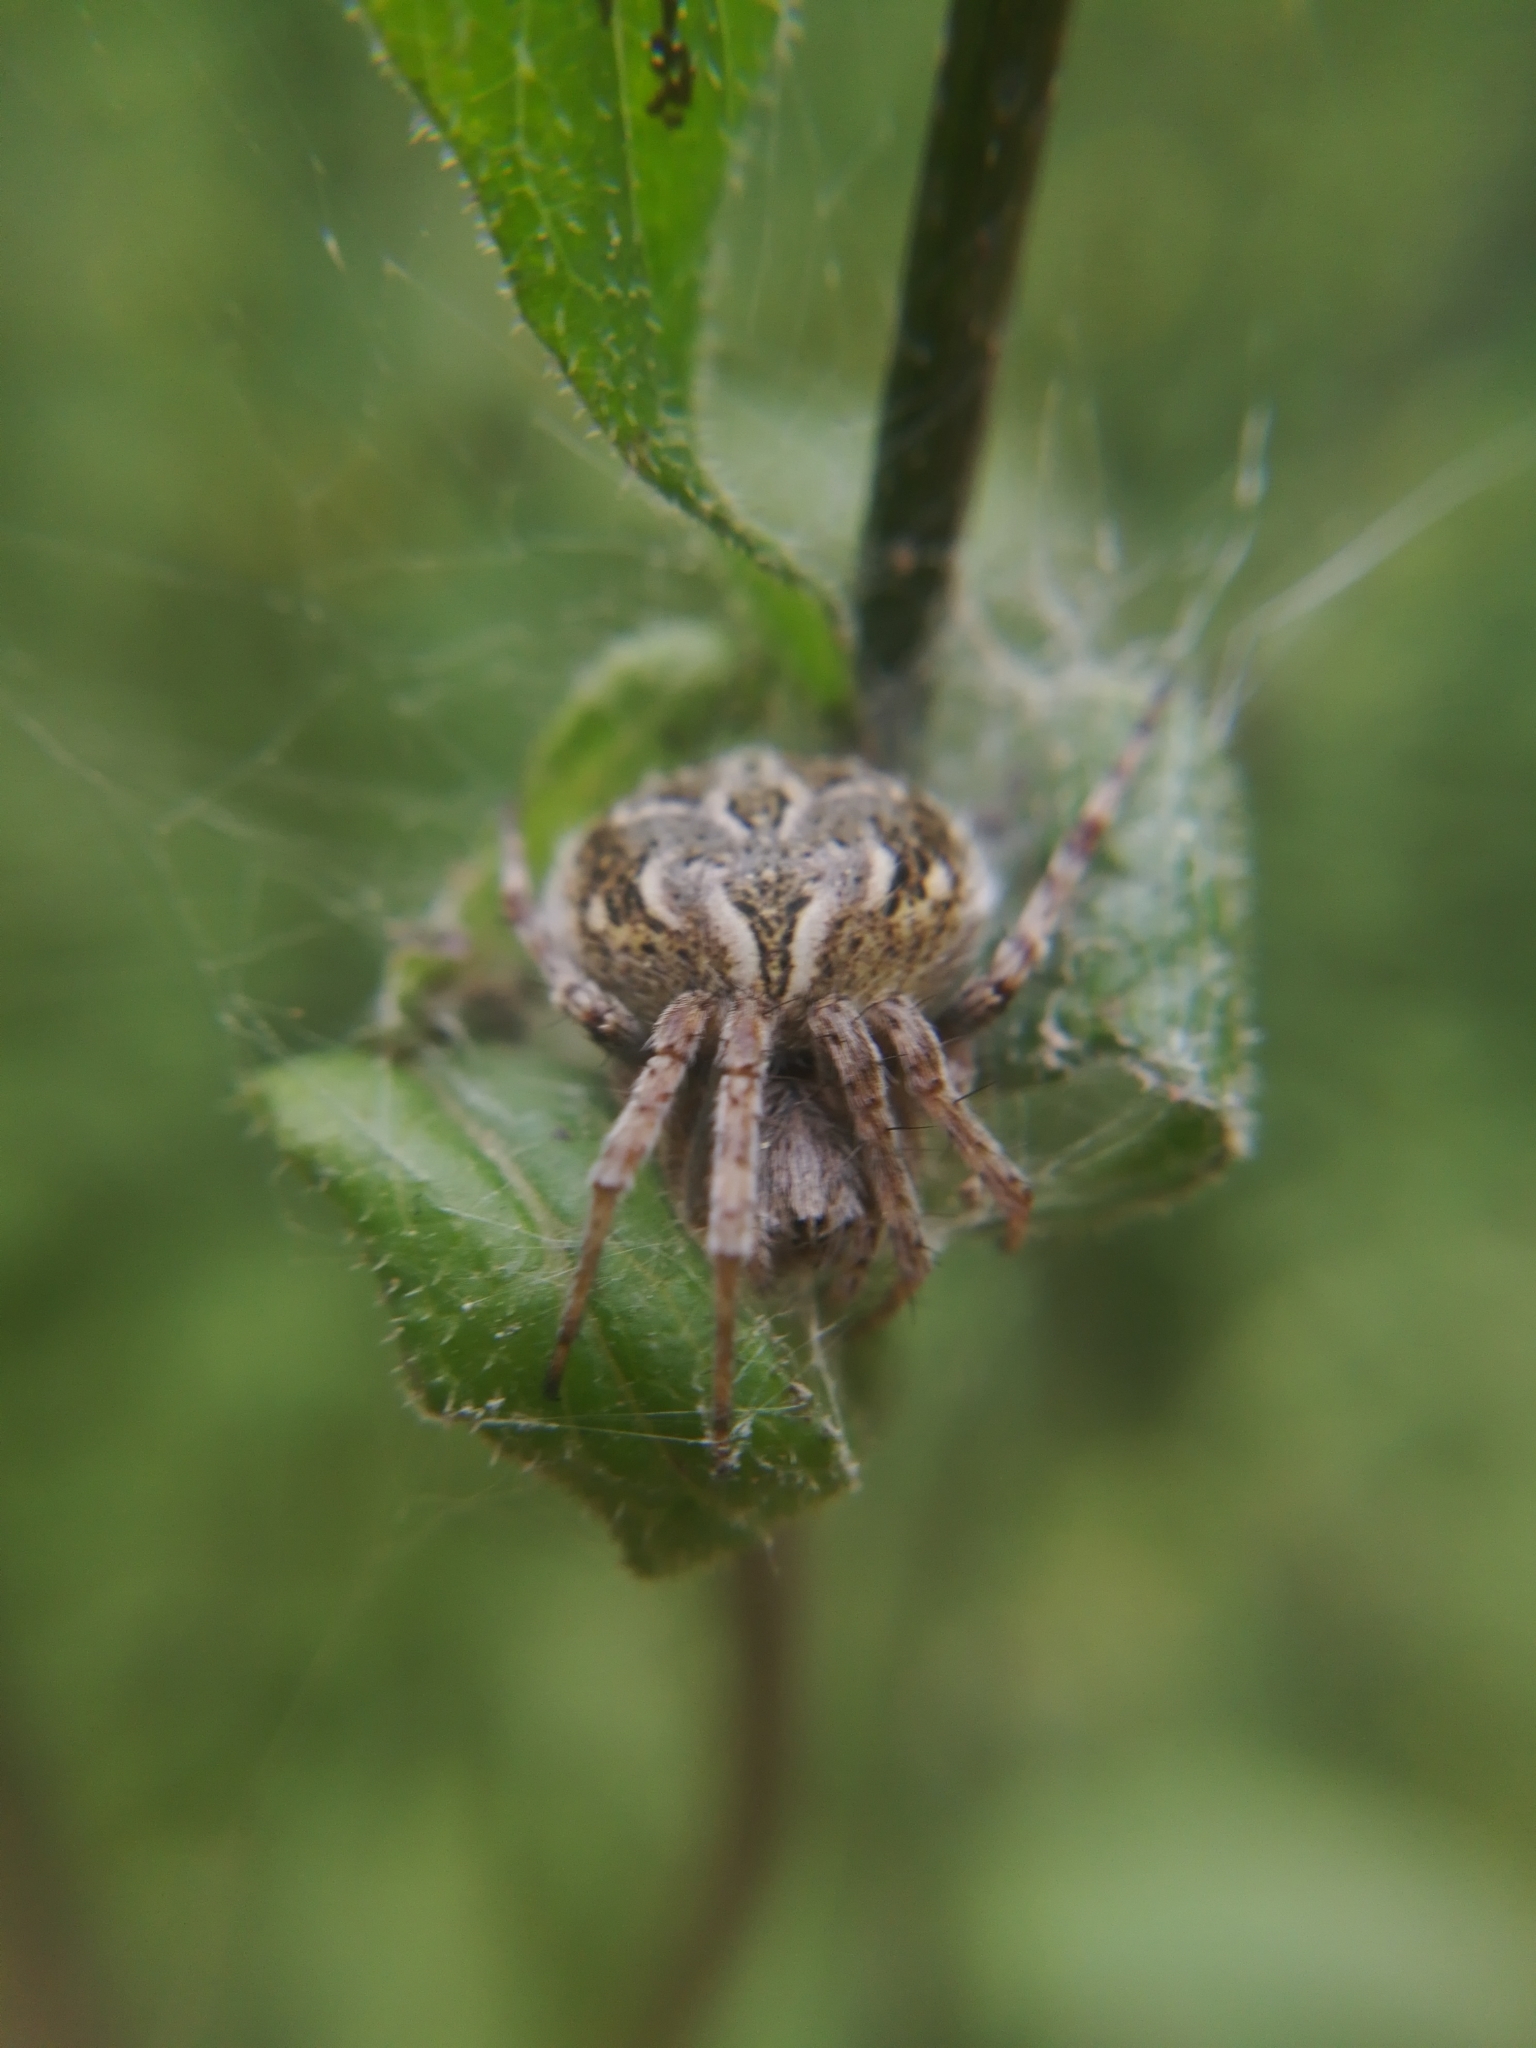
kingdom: Animalia
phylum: Arthropoda
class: Arachnida
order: Araneae
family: Araneidae
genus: Agalenatea
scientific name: Agalenatea redii
